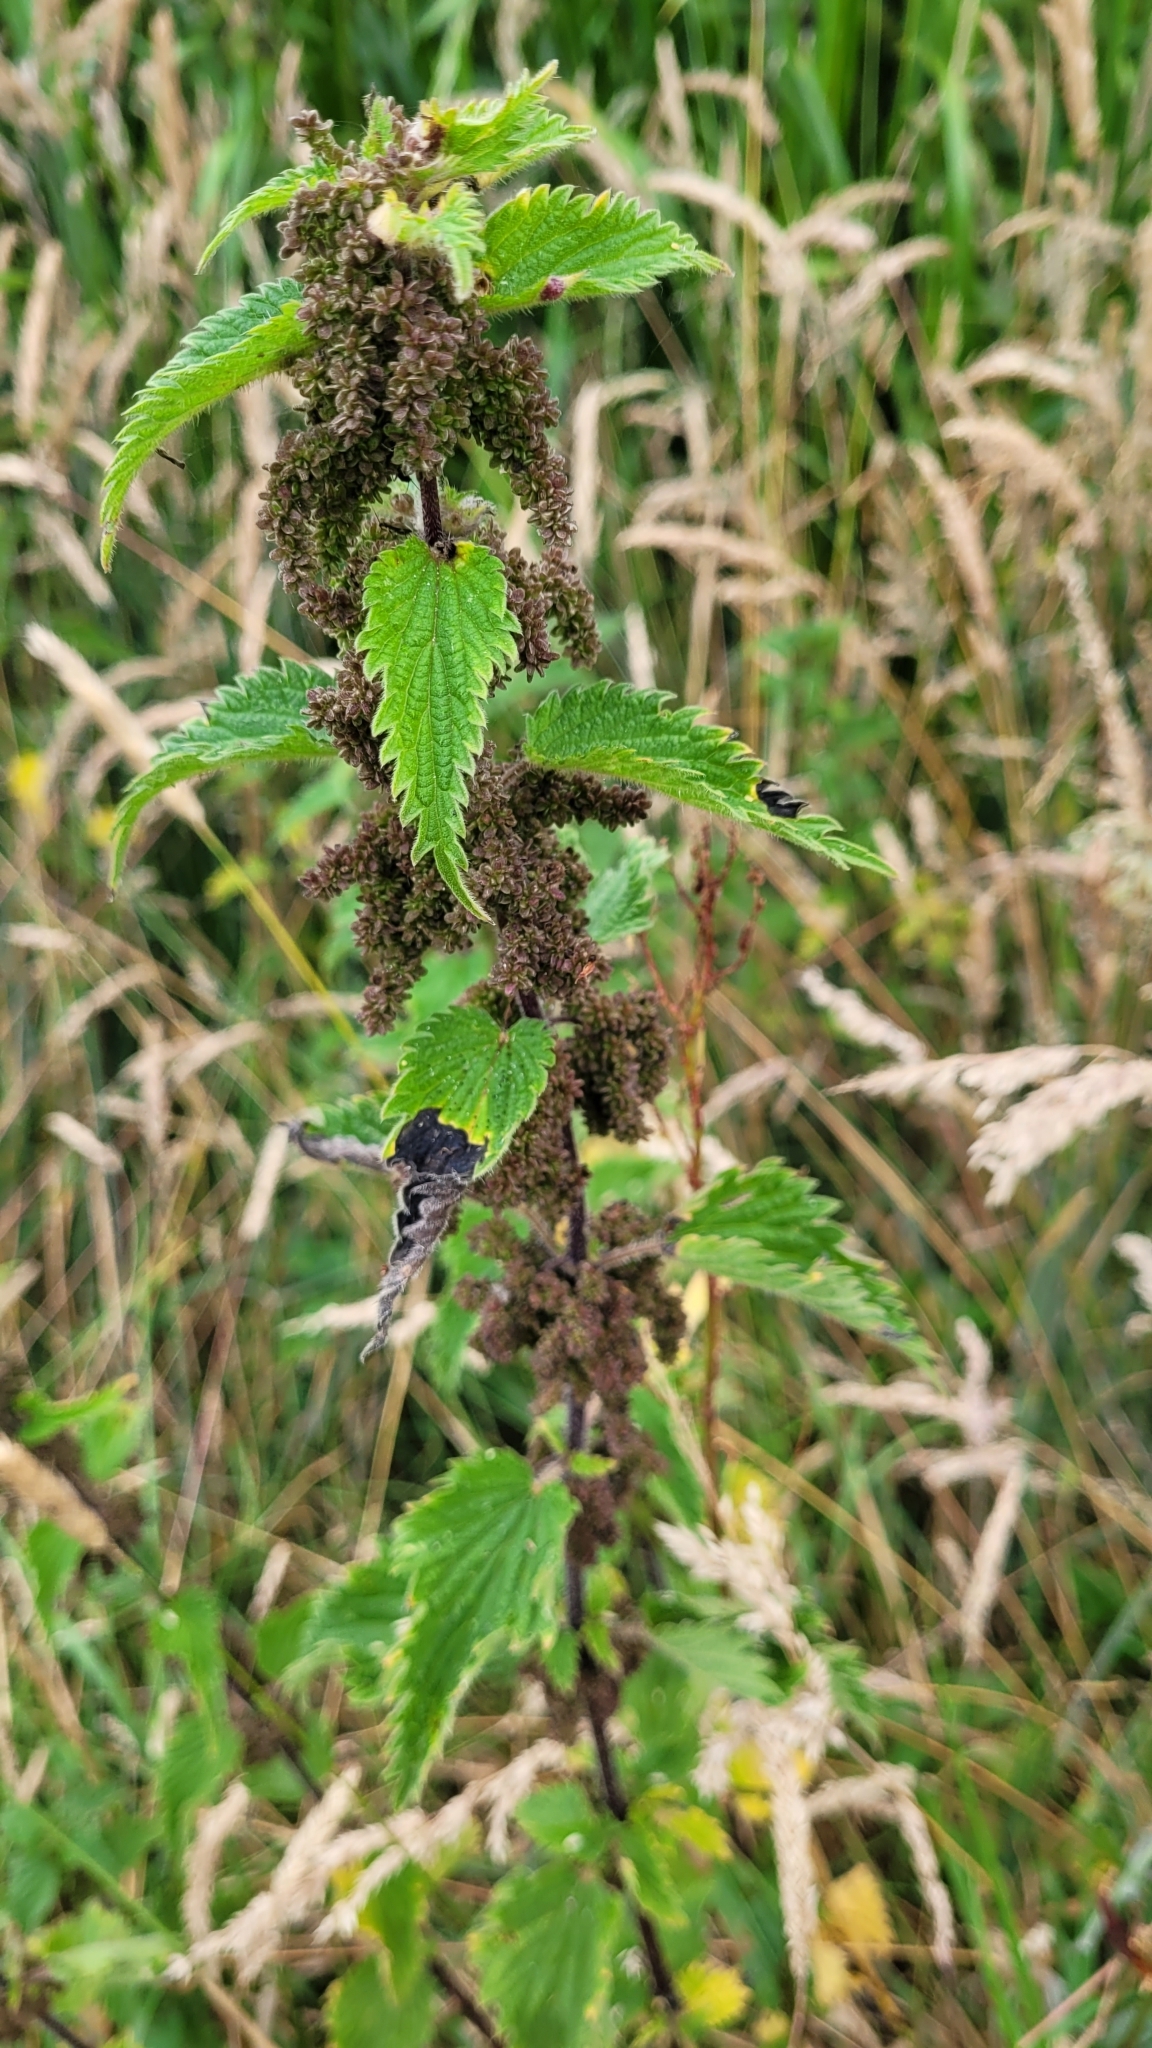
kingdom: Plantae
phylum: Tracheophyta
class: Magnoliopsida
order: Rosales
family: Urticaceae
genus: Urtica
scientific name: Urtica dioica
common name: Common nettle
